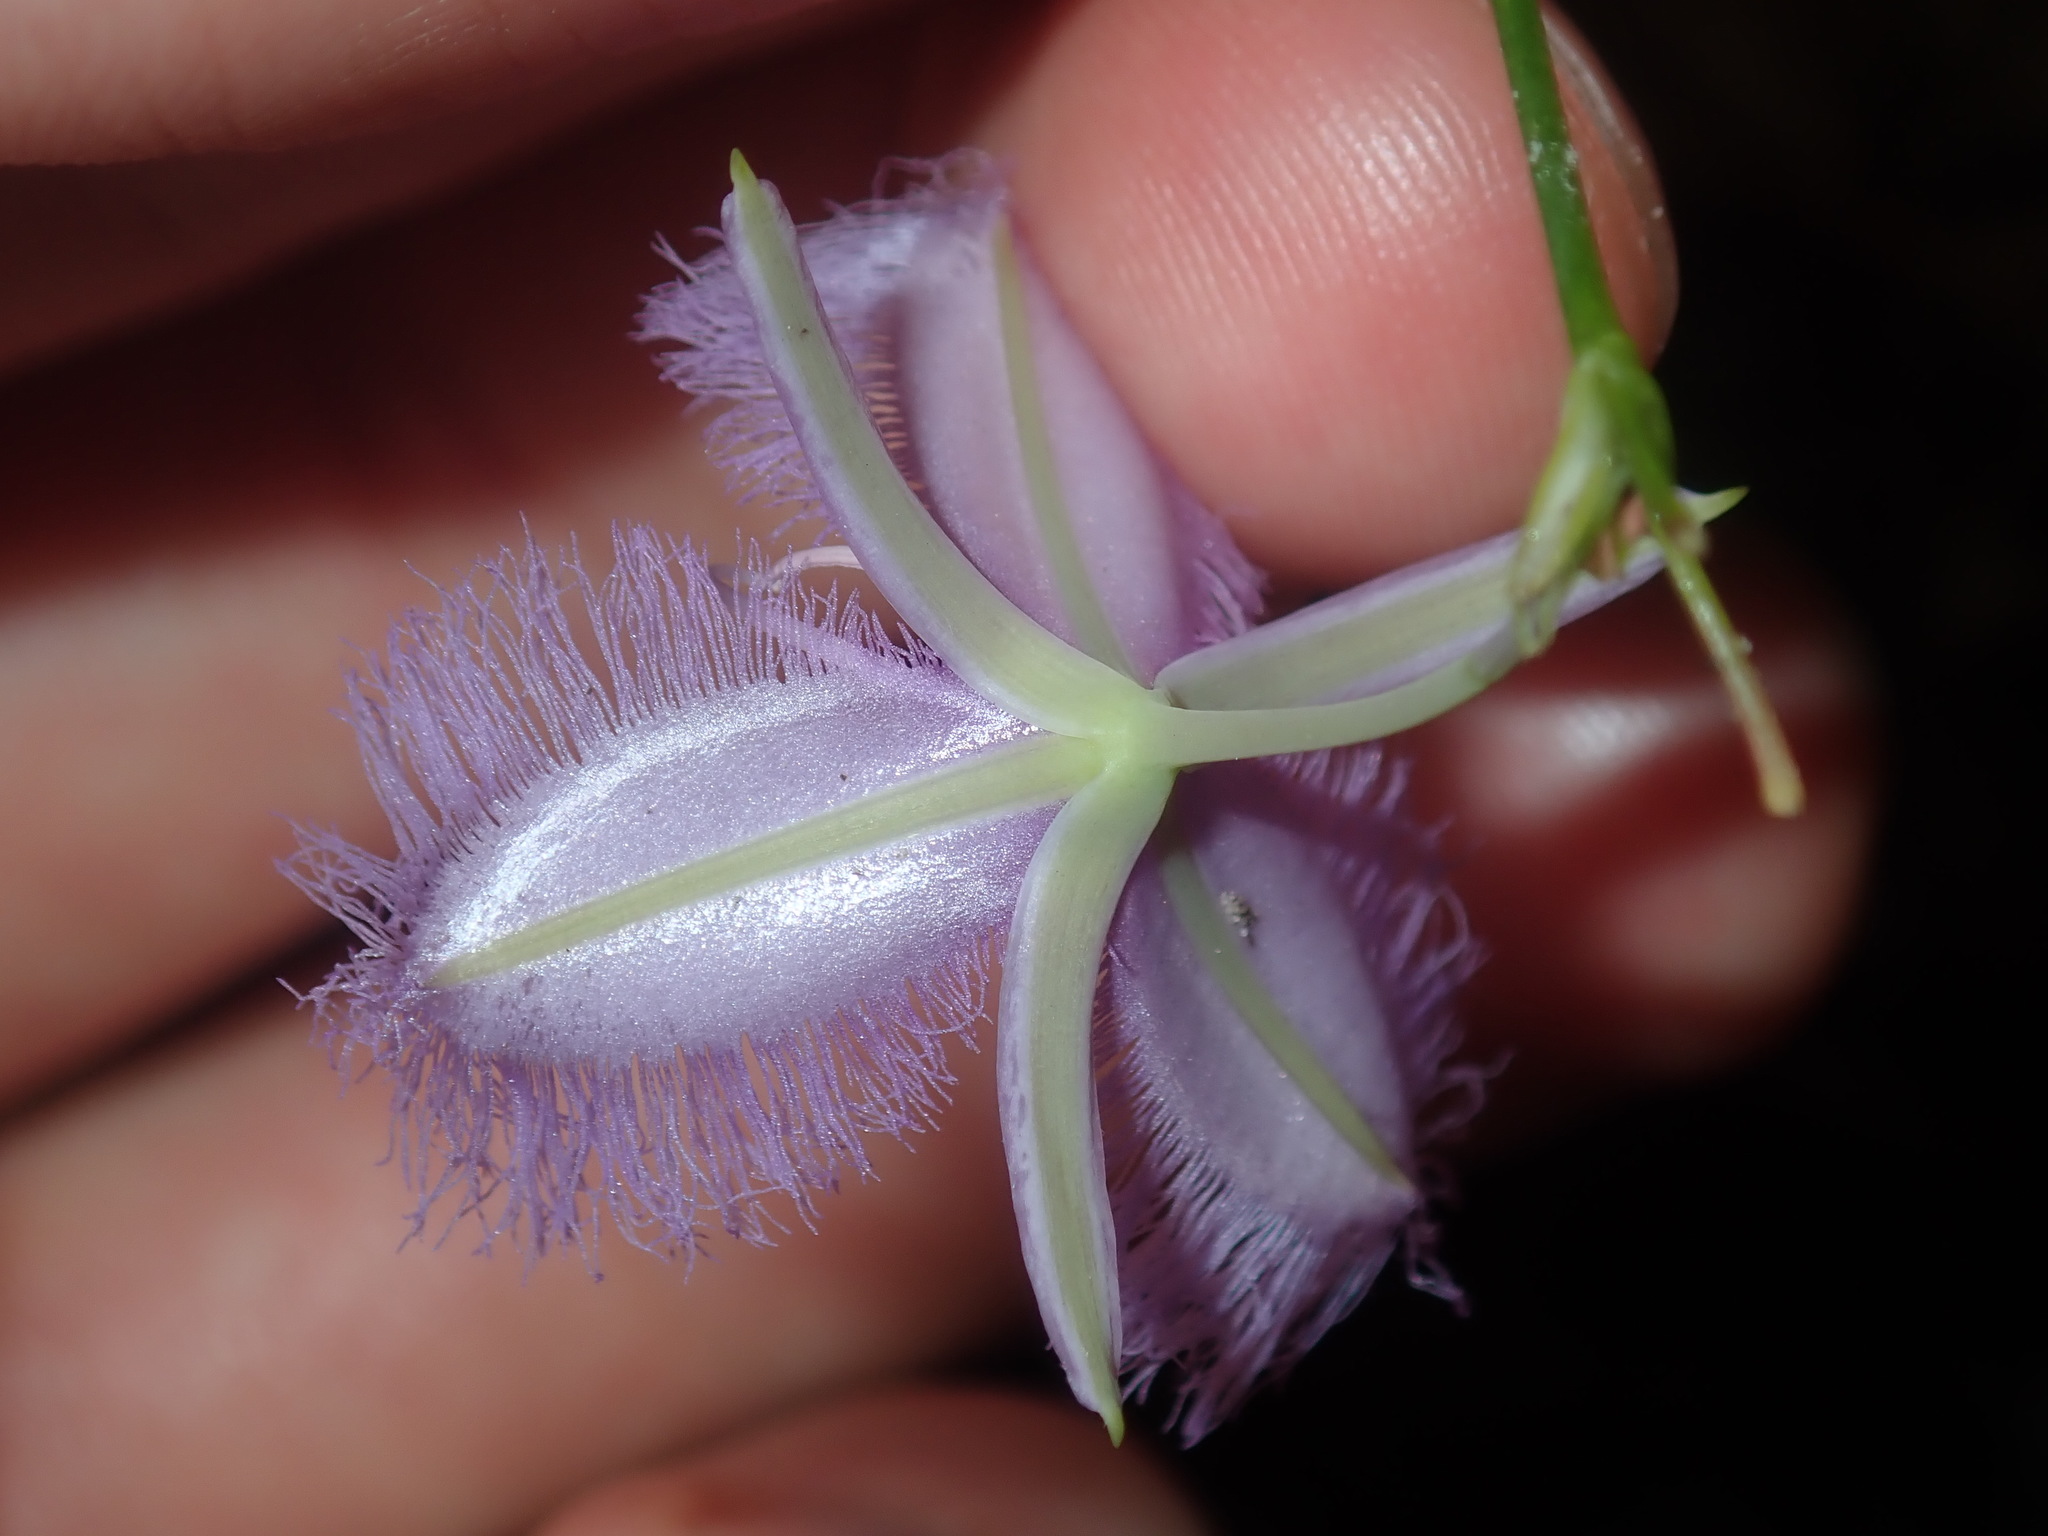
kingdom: Plantae
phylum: Tracheophyta
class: Liliopsida
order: Asparagales
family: Asparagaceae
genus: Thysanotus
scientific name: Thysanotus tuberosus
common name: Common fringed-lily
